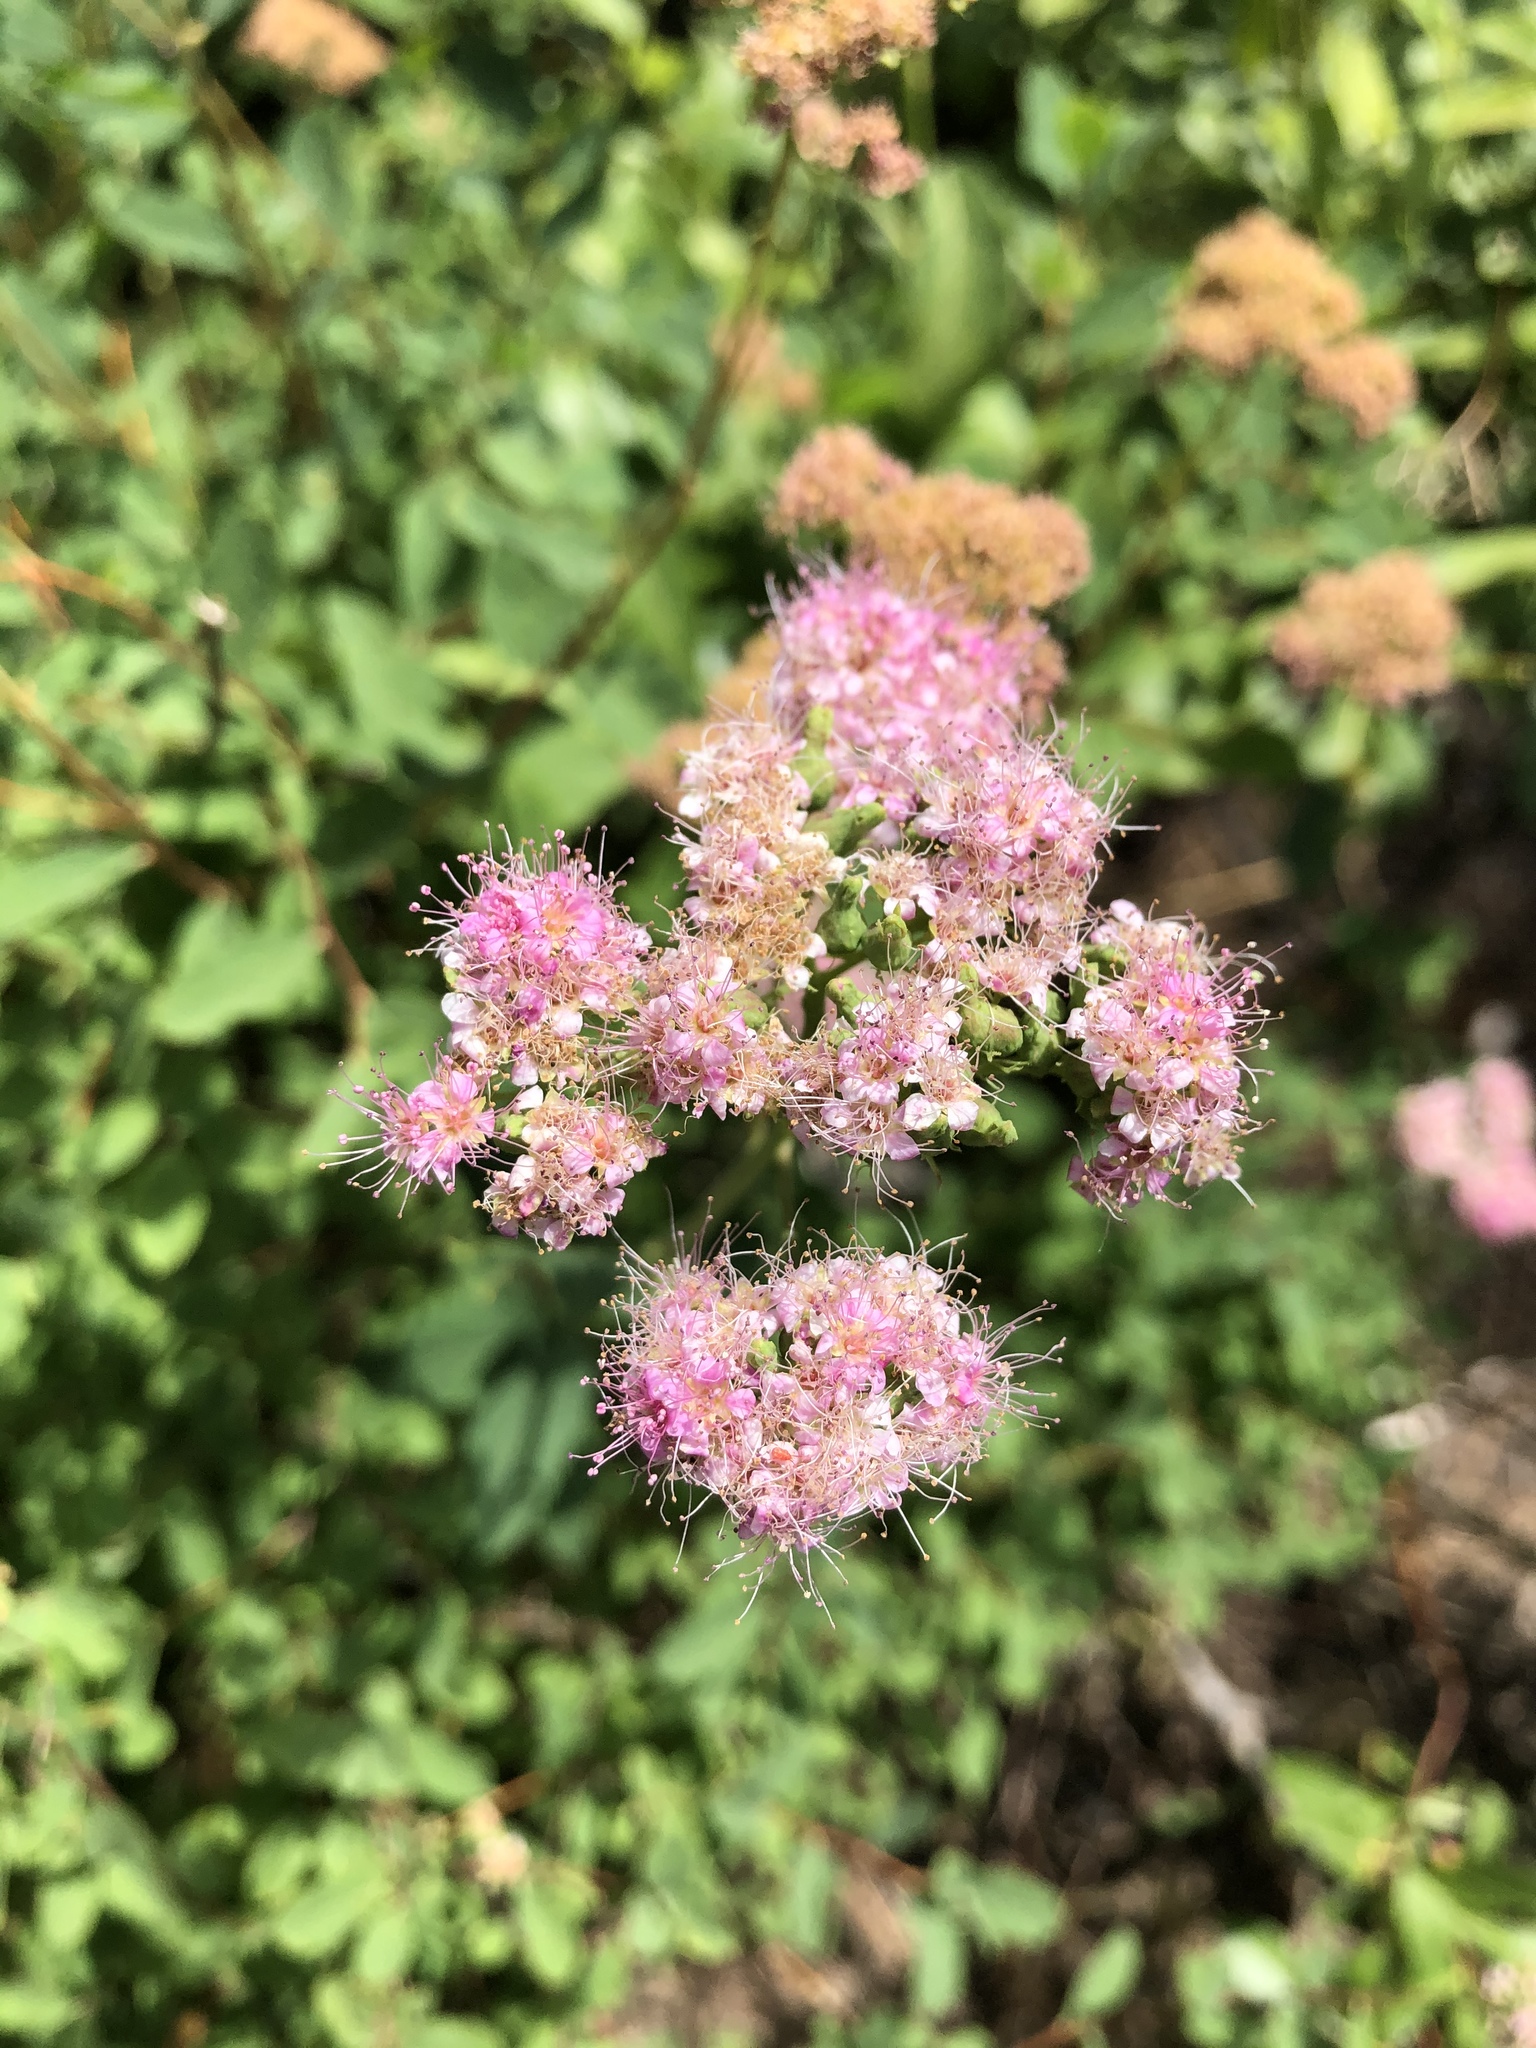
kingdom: Plantae
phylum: Tracheophyta
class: Magnoliopsida
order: Rosales
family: Rosaceae
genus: Spiraea
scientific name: Spiraea splendens
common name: Subalpine meadowsweet
